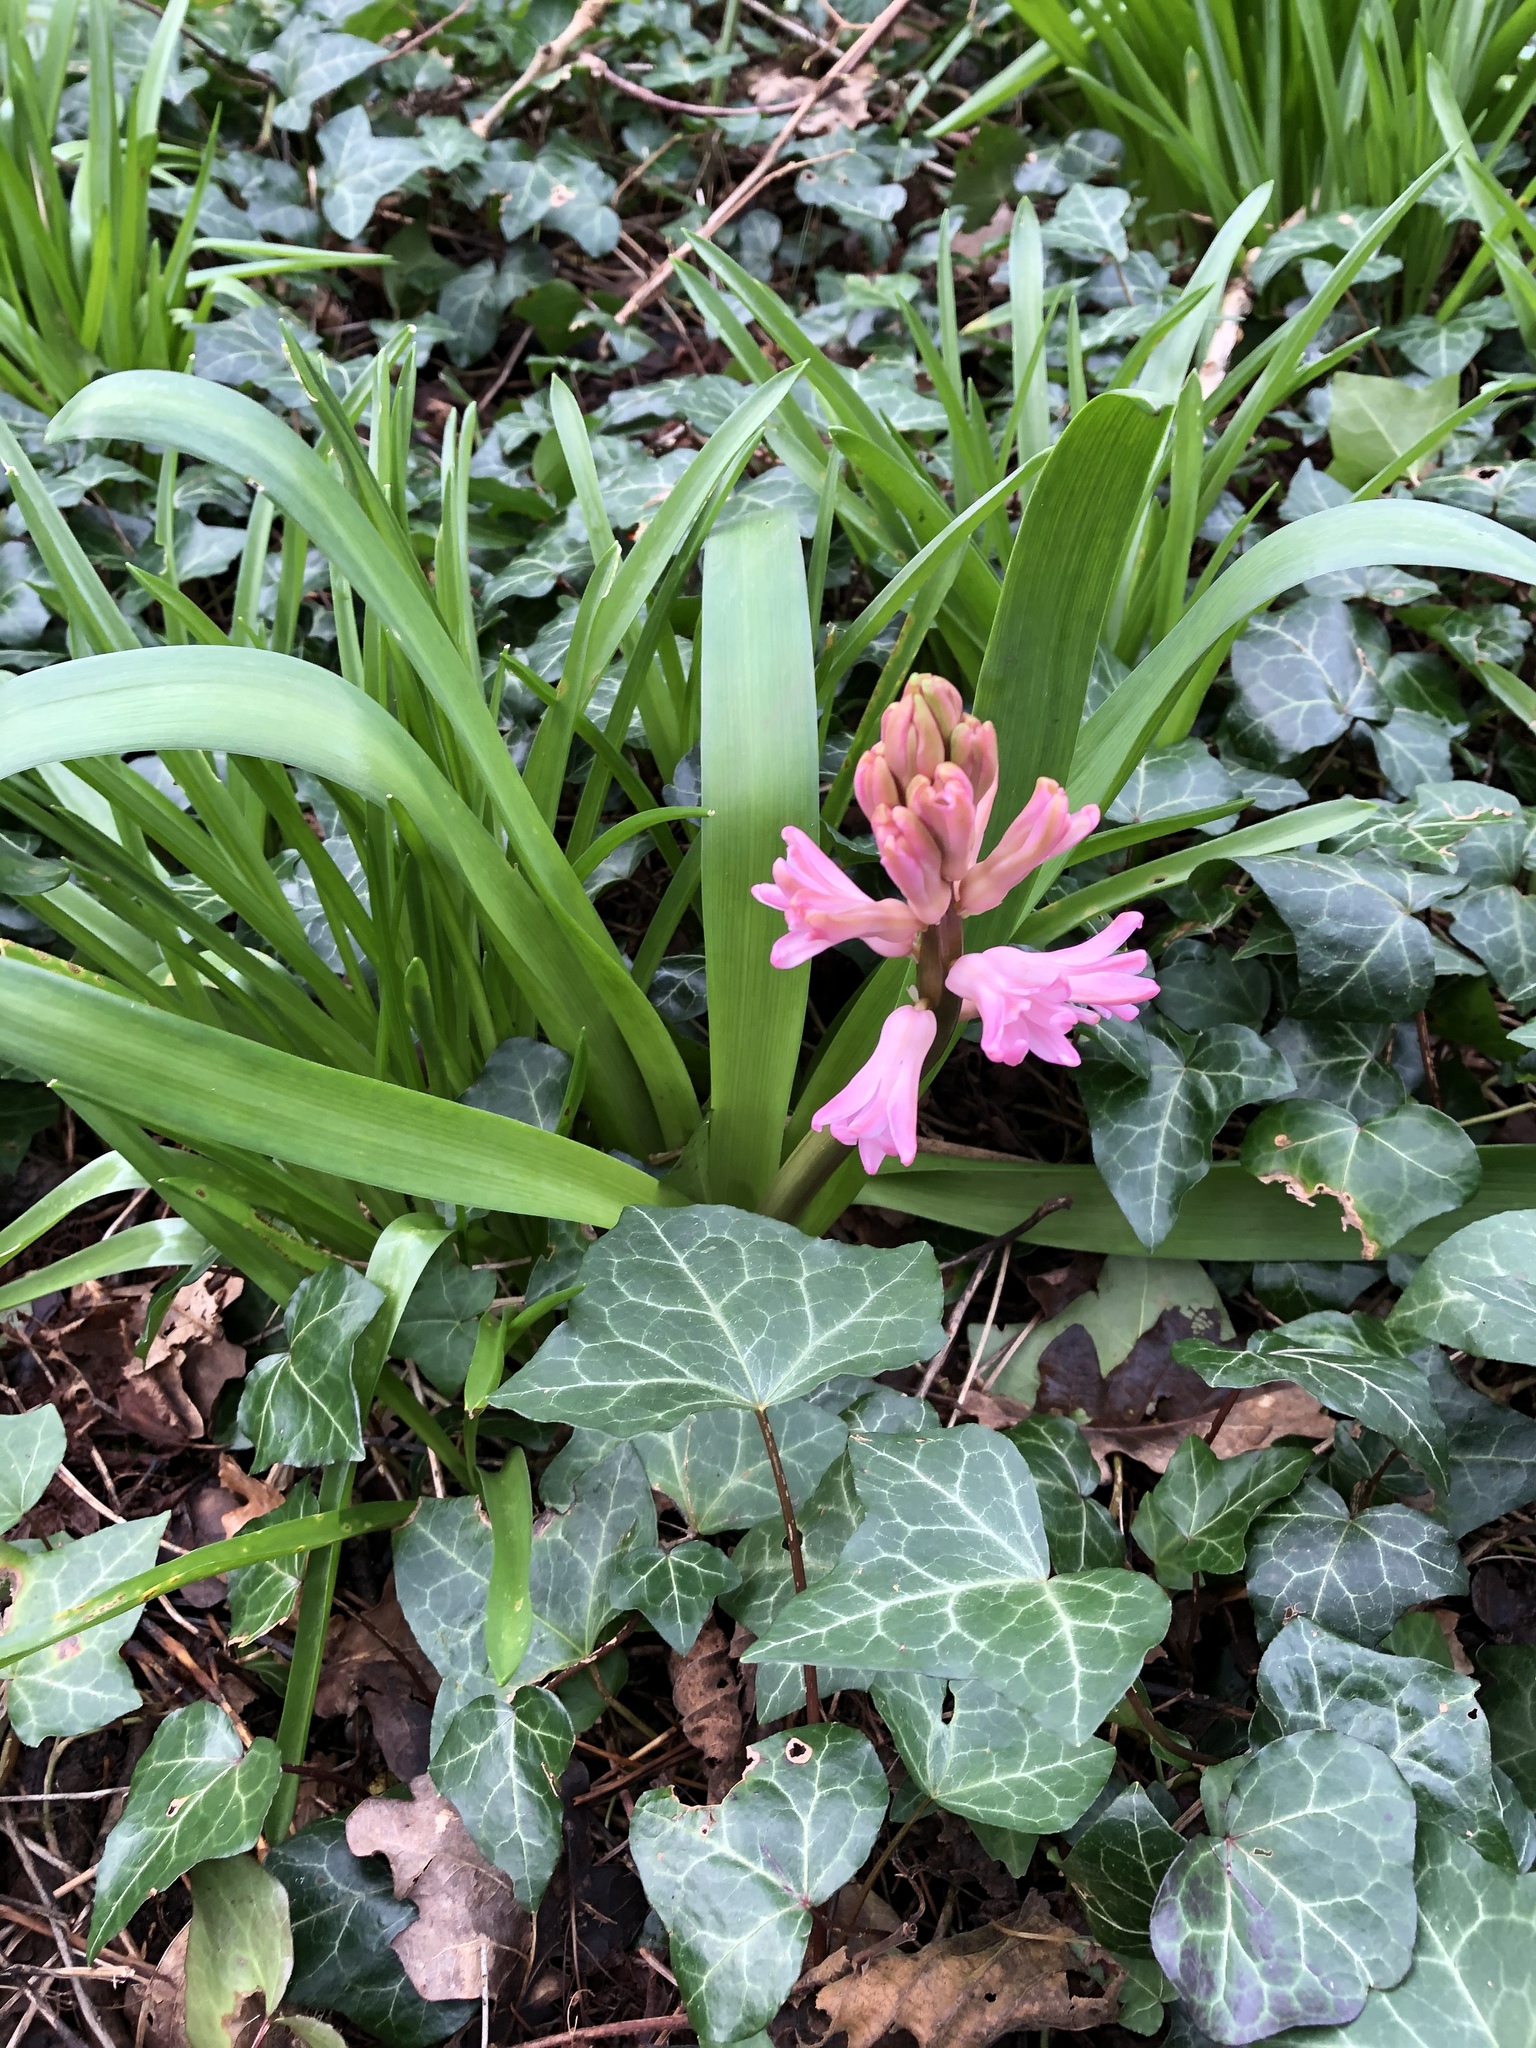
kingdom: Plantae
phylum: Tracheophyta
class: Liliopsida
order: Asparagales
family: Asparagaceae
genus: Hyacinthus
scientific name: Hyacinthus orientalis
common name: Hyacinth
